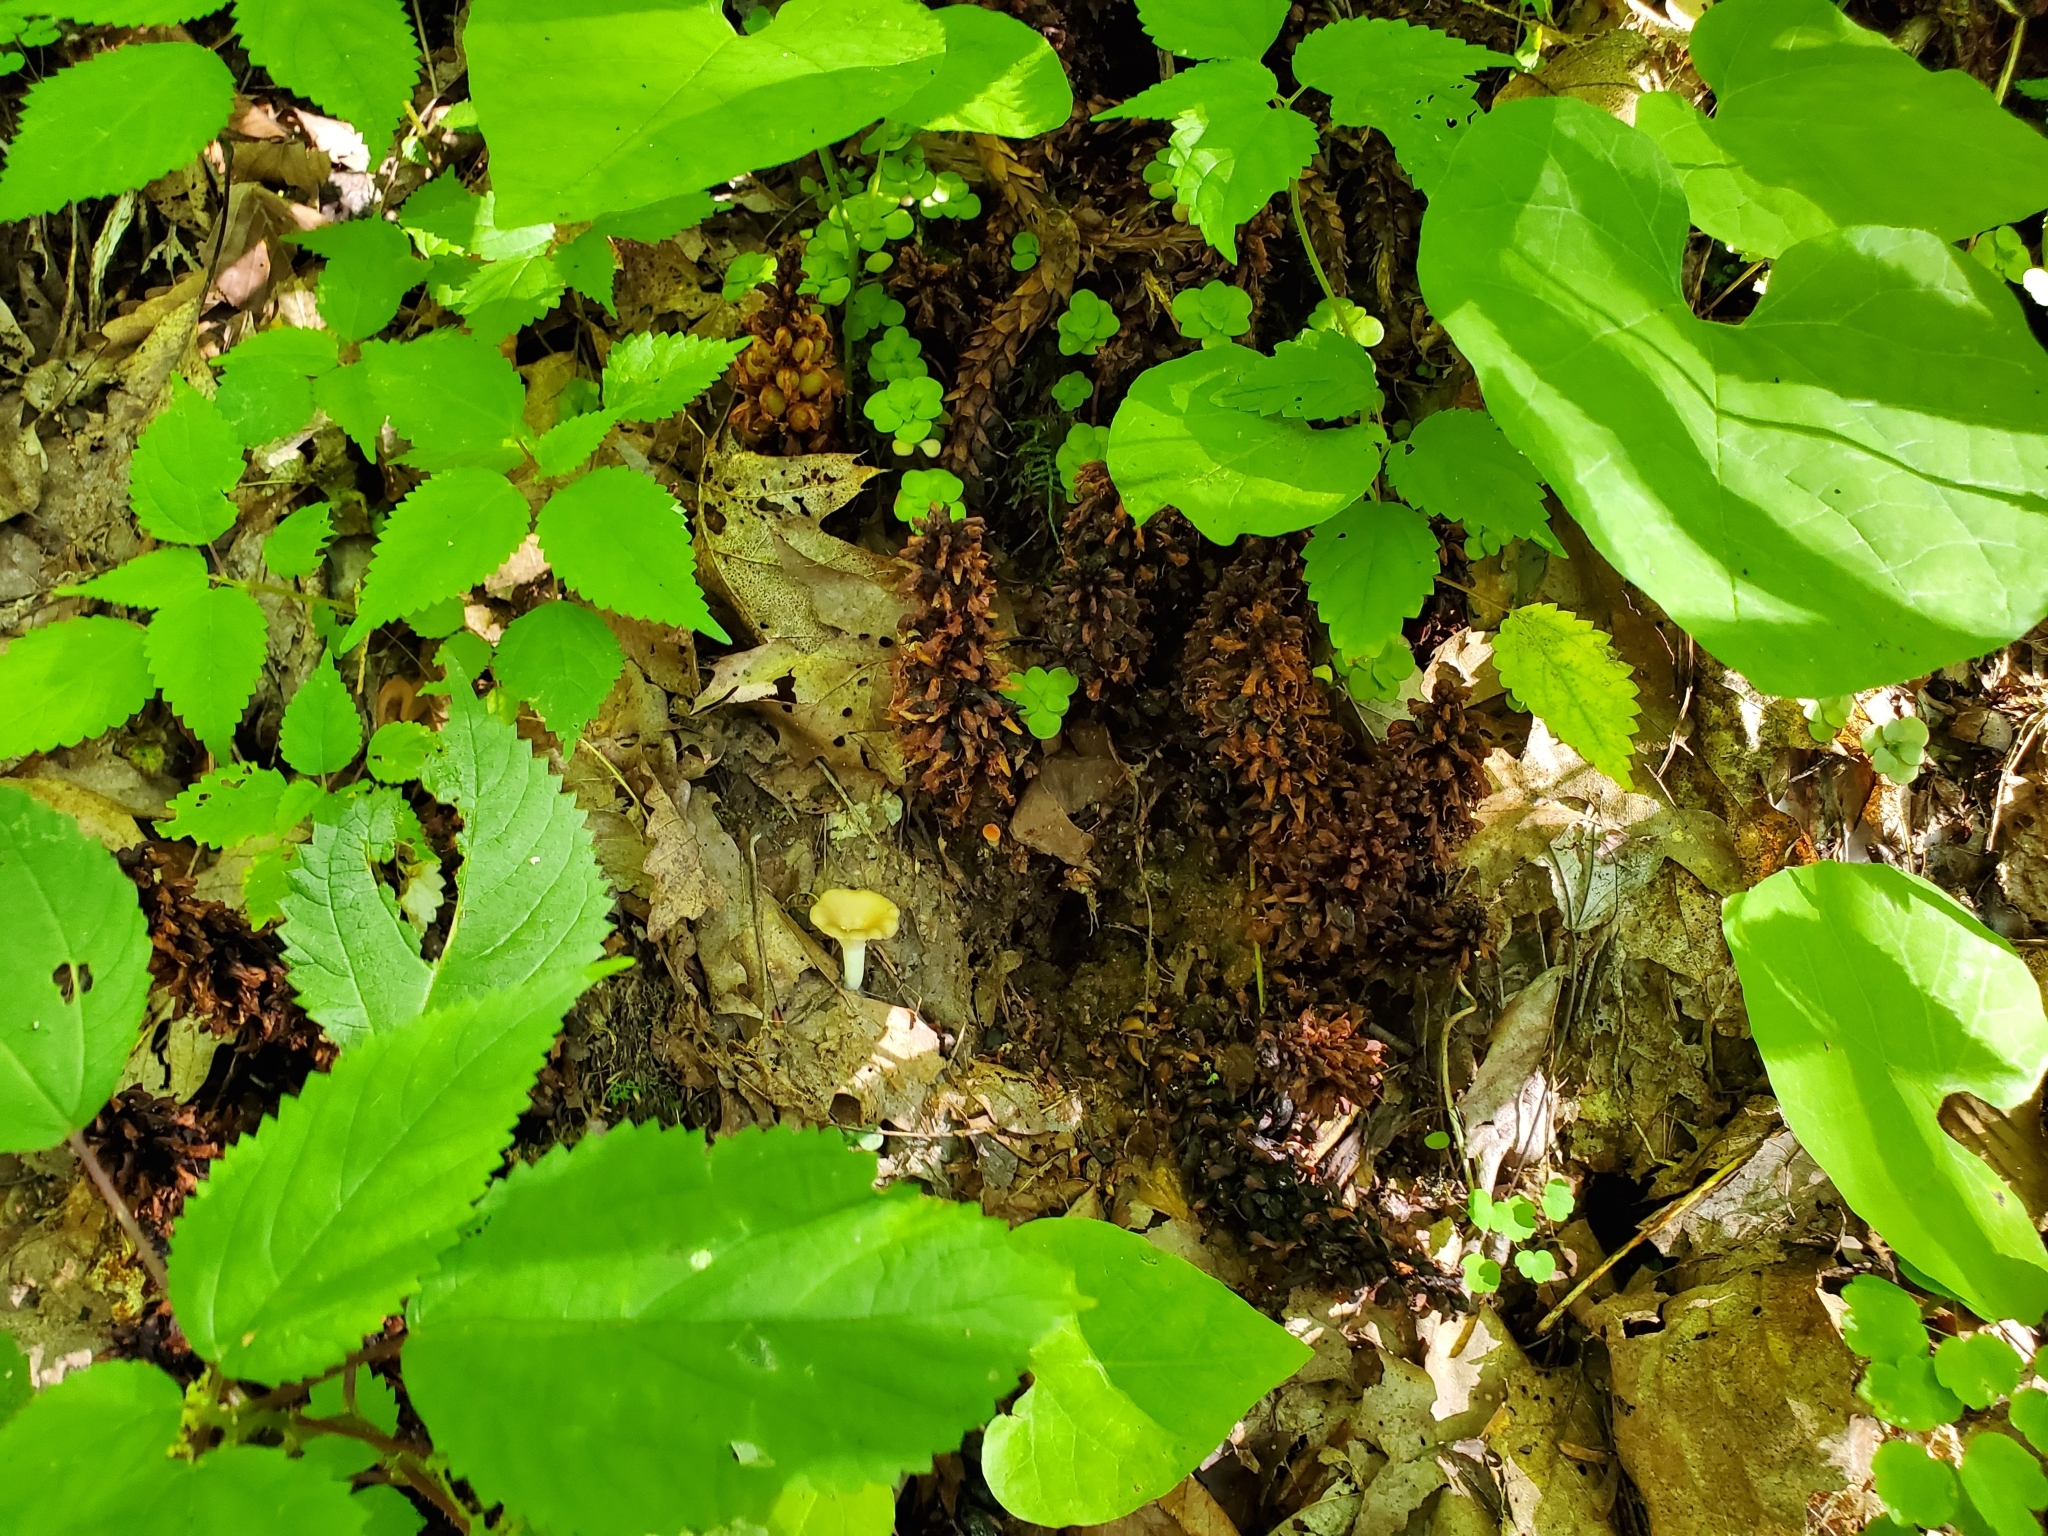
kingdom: Plantae
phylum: Tracheophyta
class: Magnoliopsida
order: Lamiales
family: Orobanchaceae
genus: Conopholis
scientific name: Conopholis americana
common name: American cancer-root
